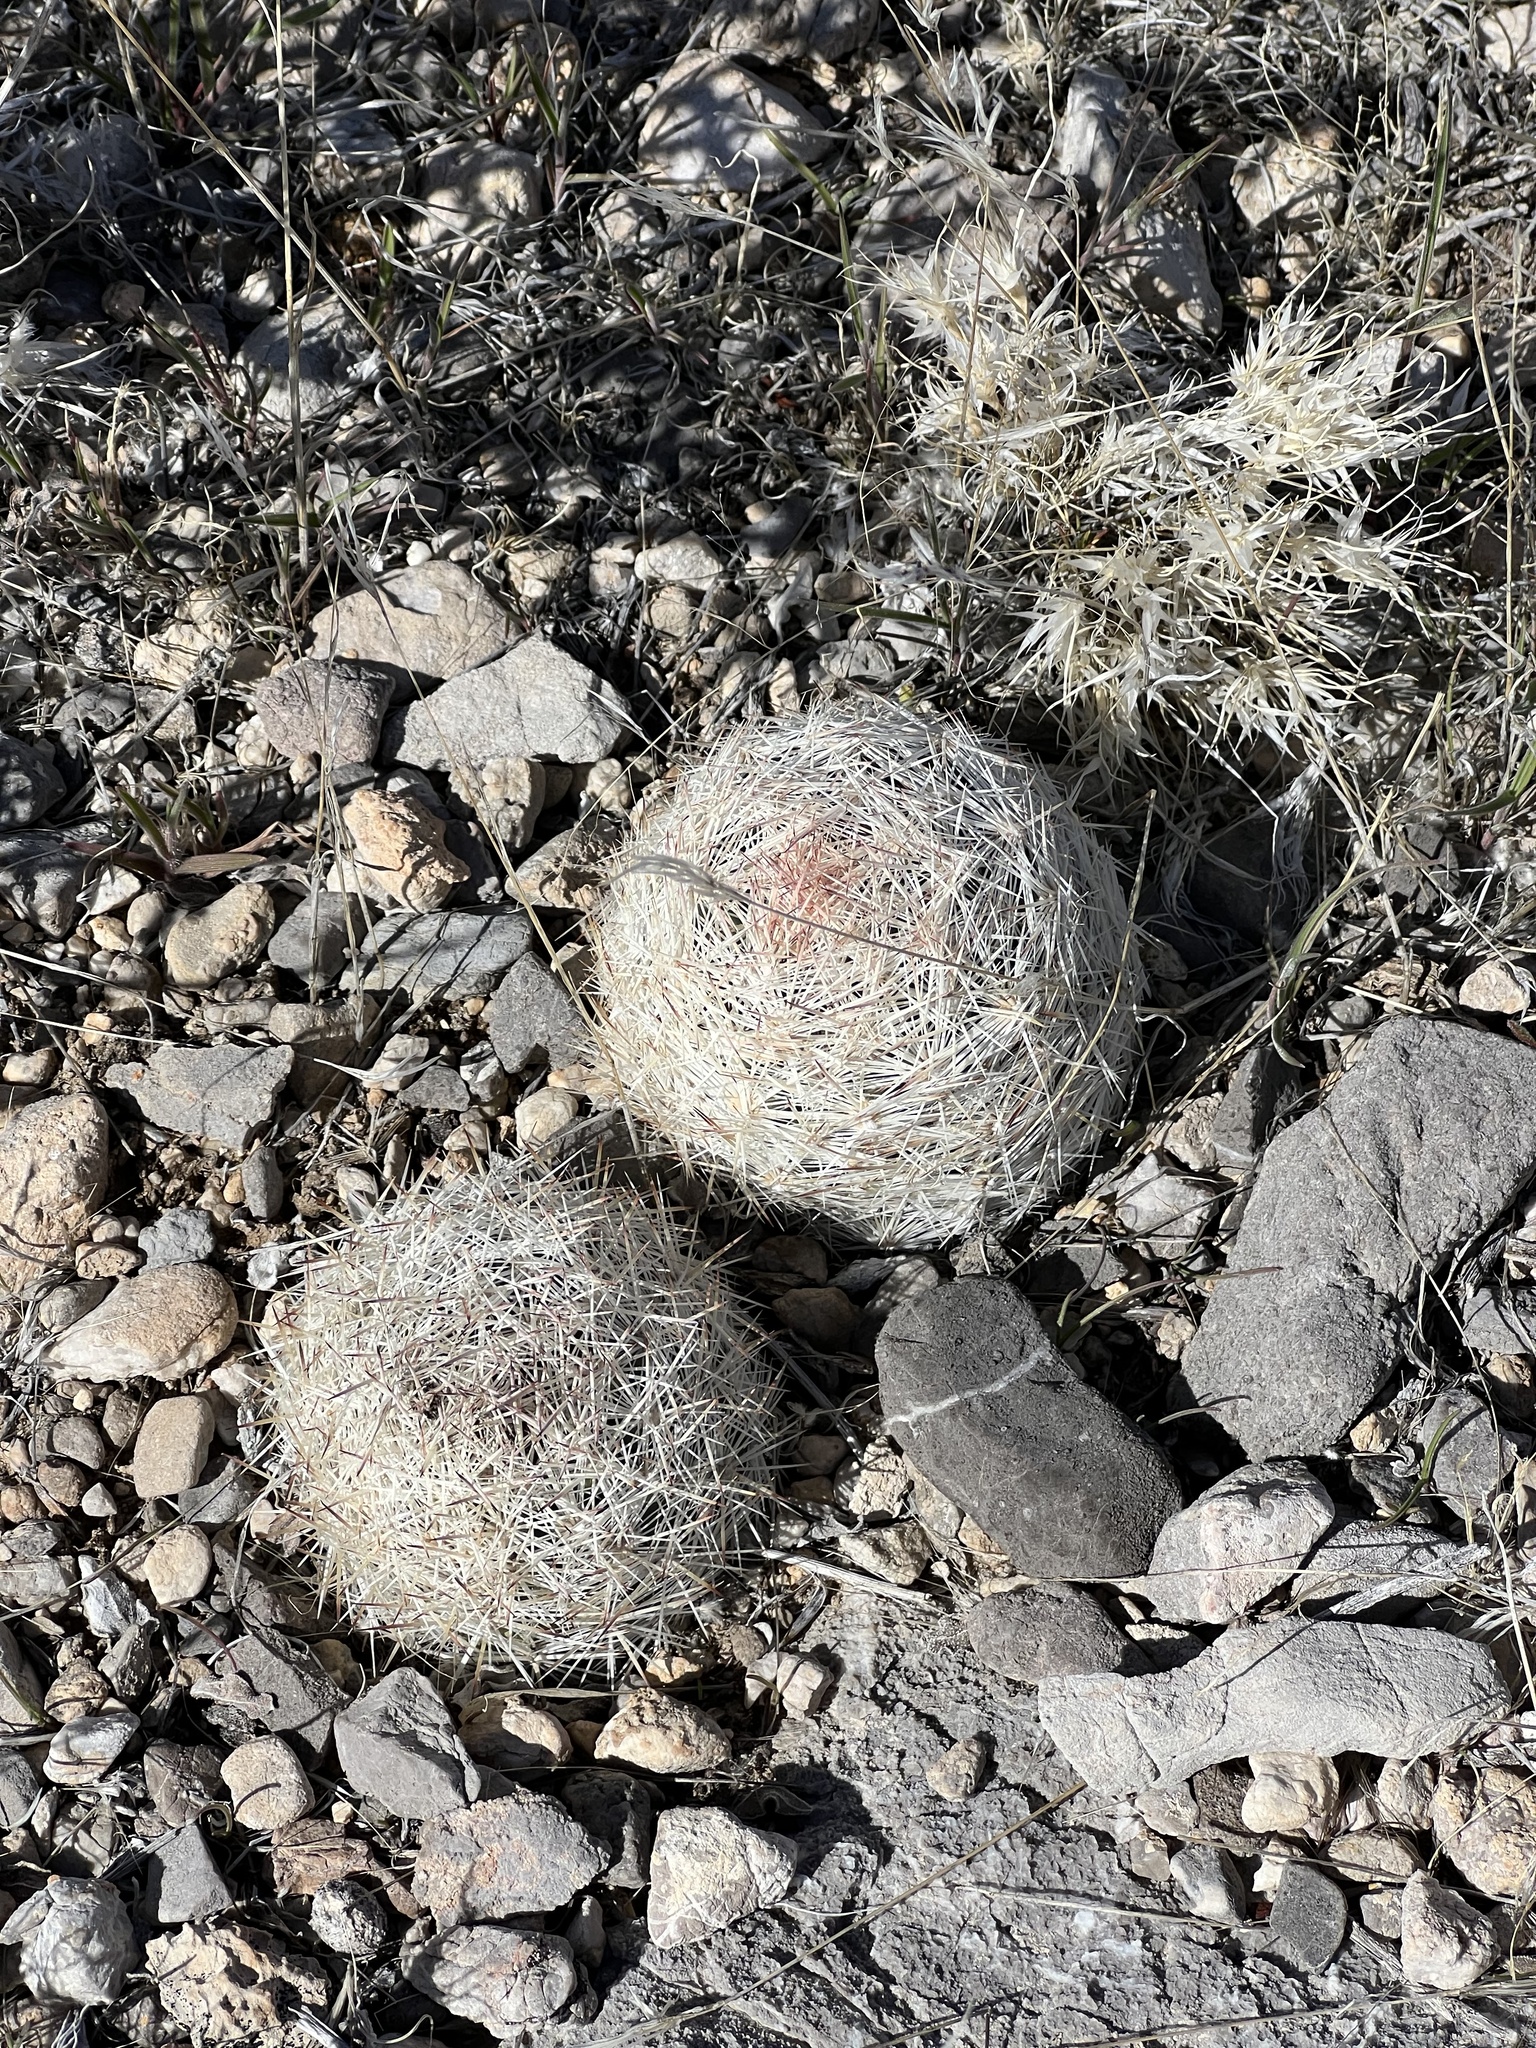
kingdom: Plantae
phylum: Tracheophyta
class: Magnoliopsida
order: Caryophyllales
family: Cactaceae
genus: Pelecyphora
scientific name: Pelecyphora dasyacantha
